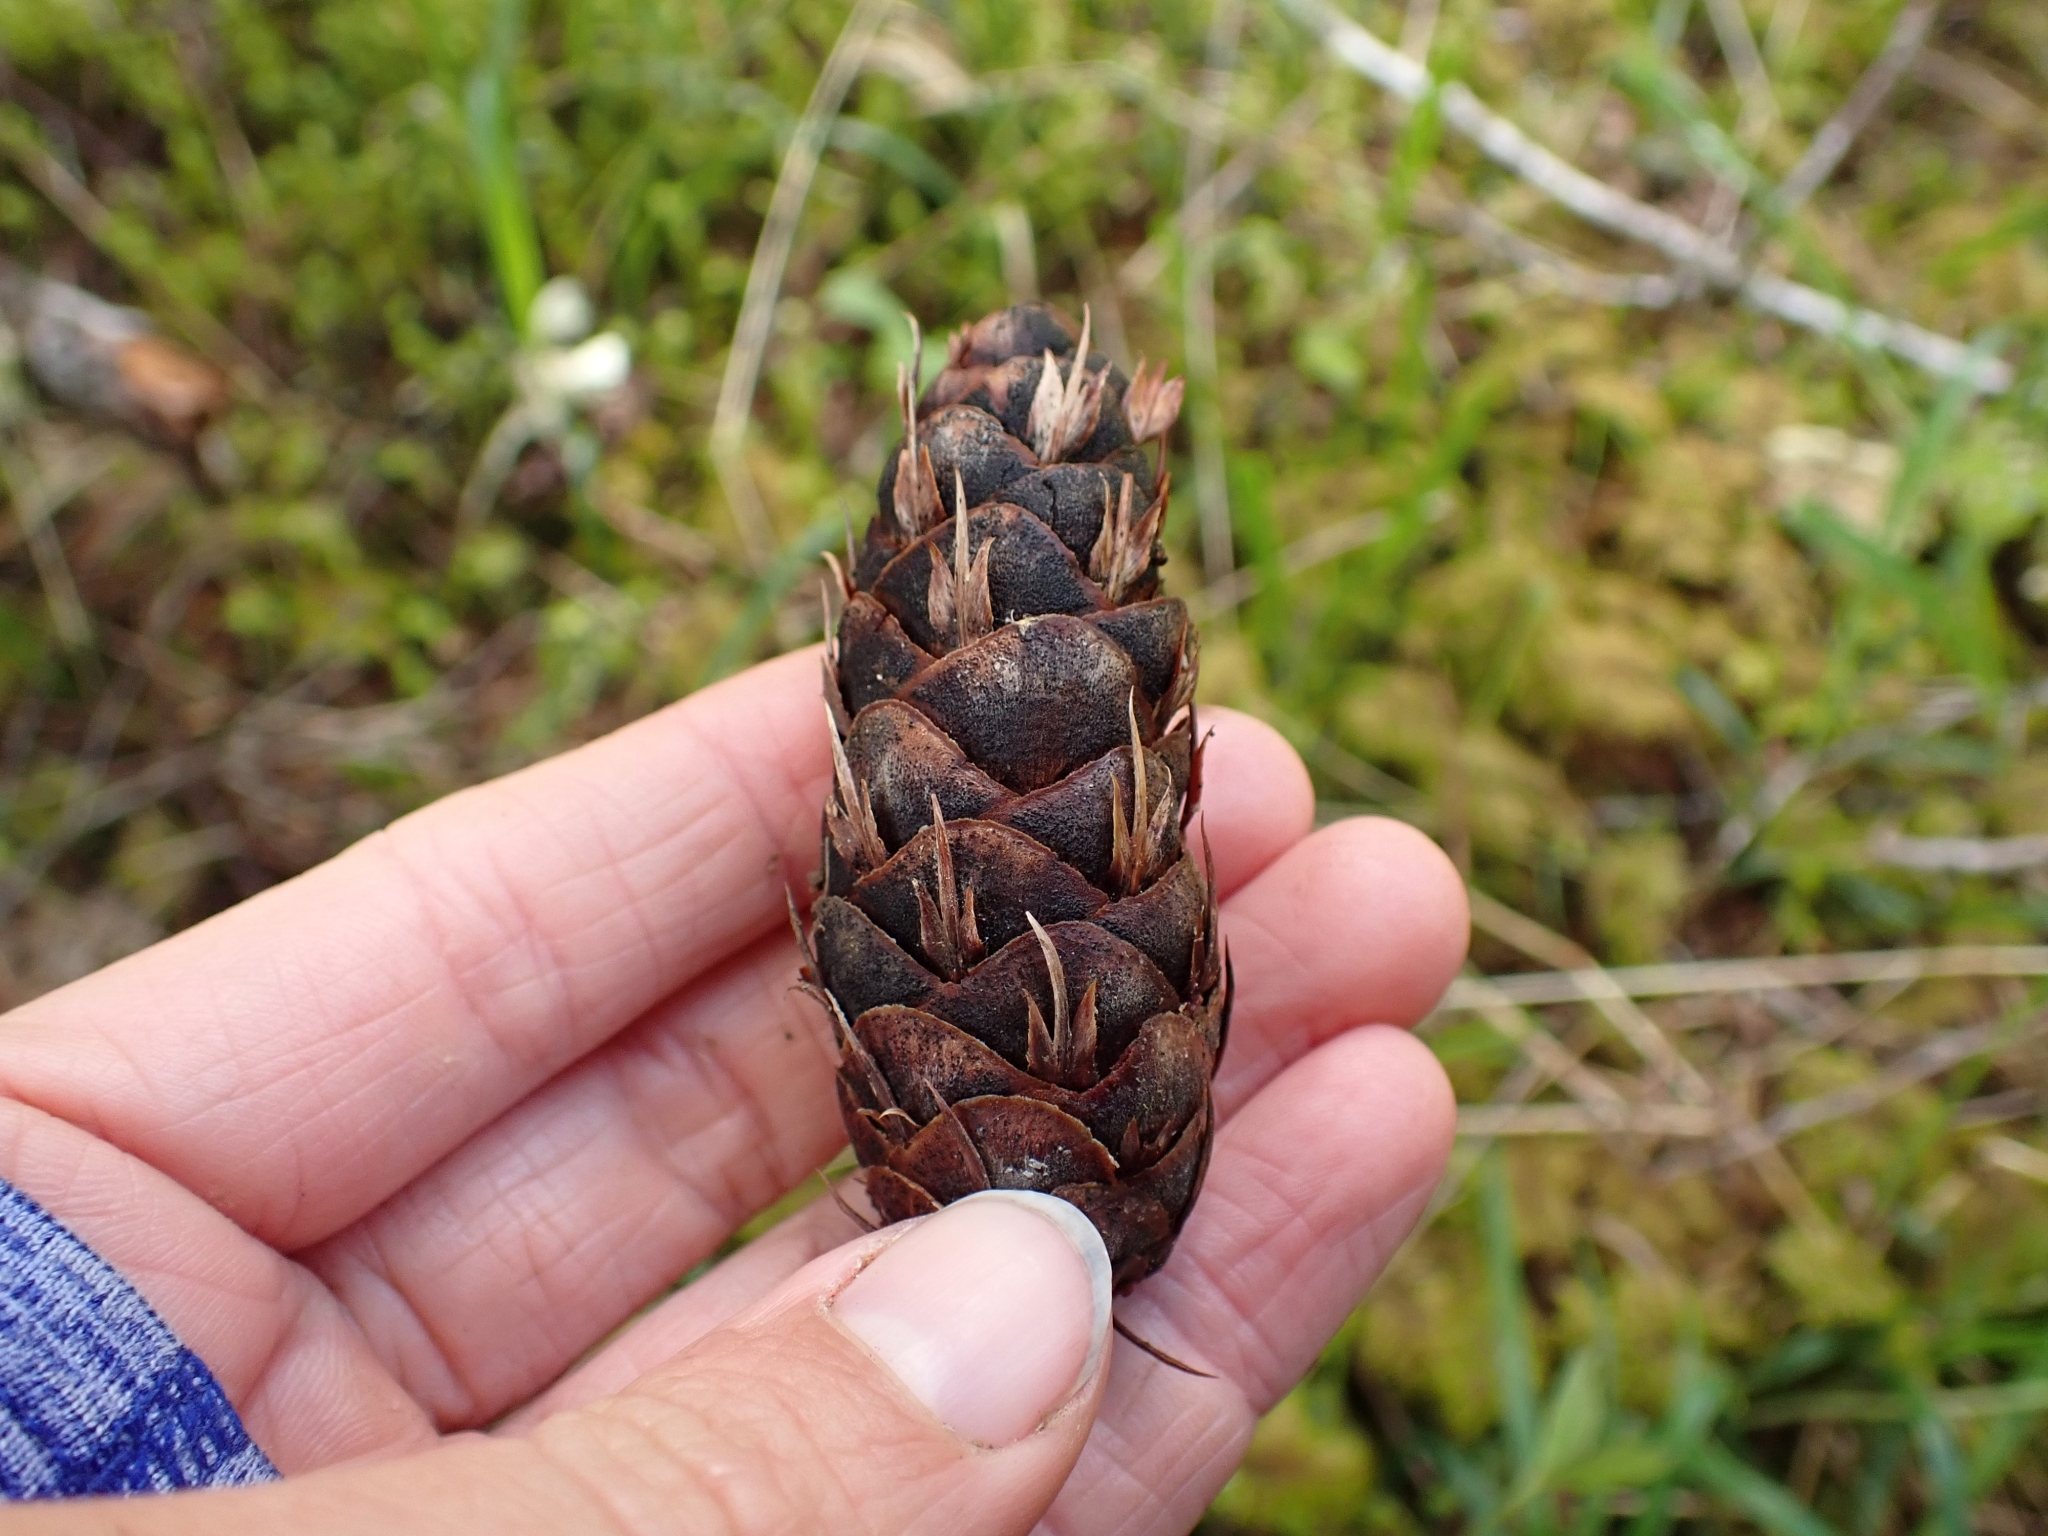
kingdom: Plantae
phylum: Tracheophyta
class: Pinopsida
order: Pinales
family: Pinaceae
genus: Pseudotsuga
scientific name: Pseudotsuga menziesii
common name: Douglas fir
